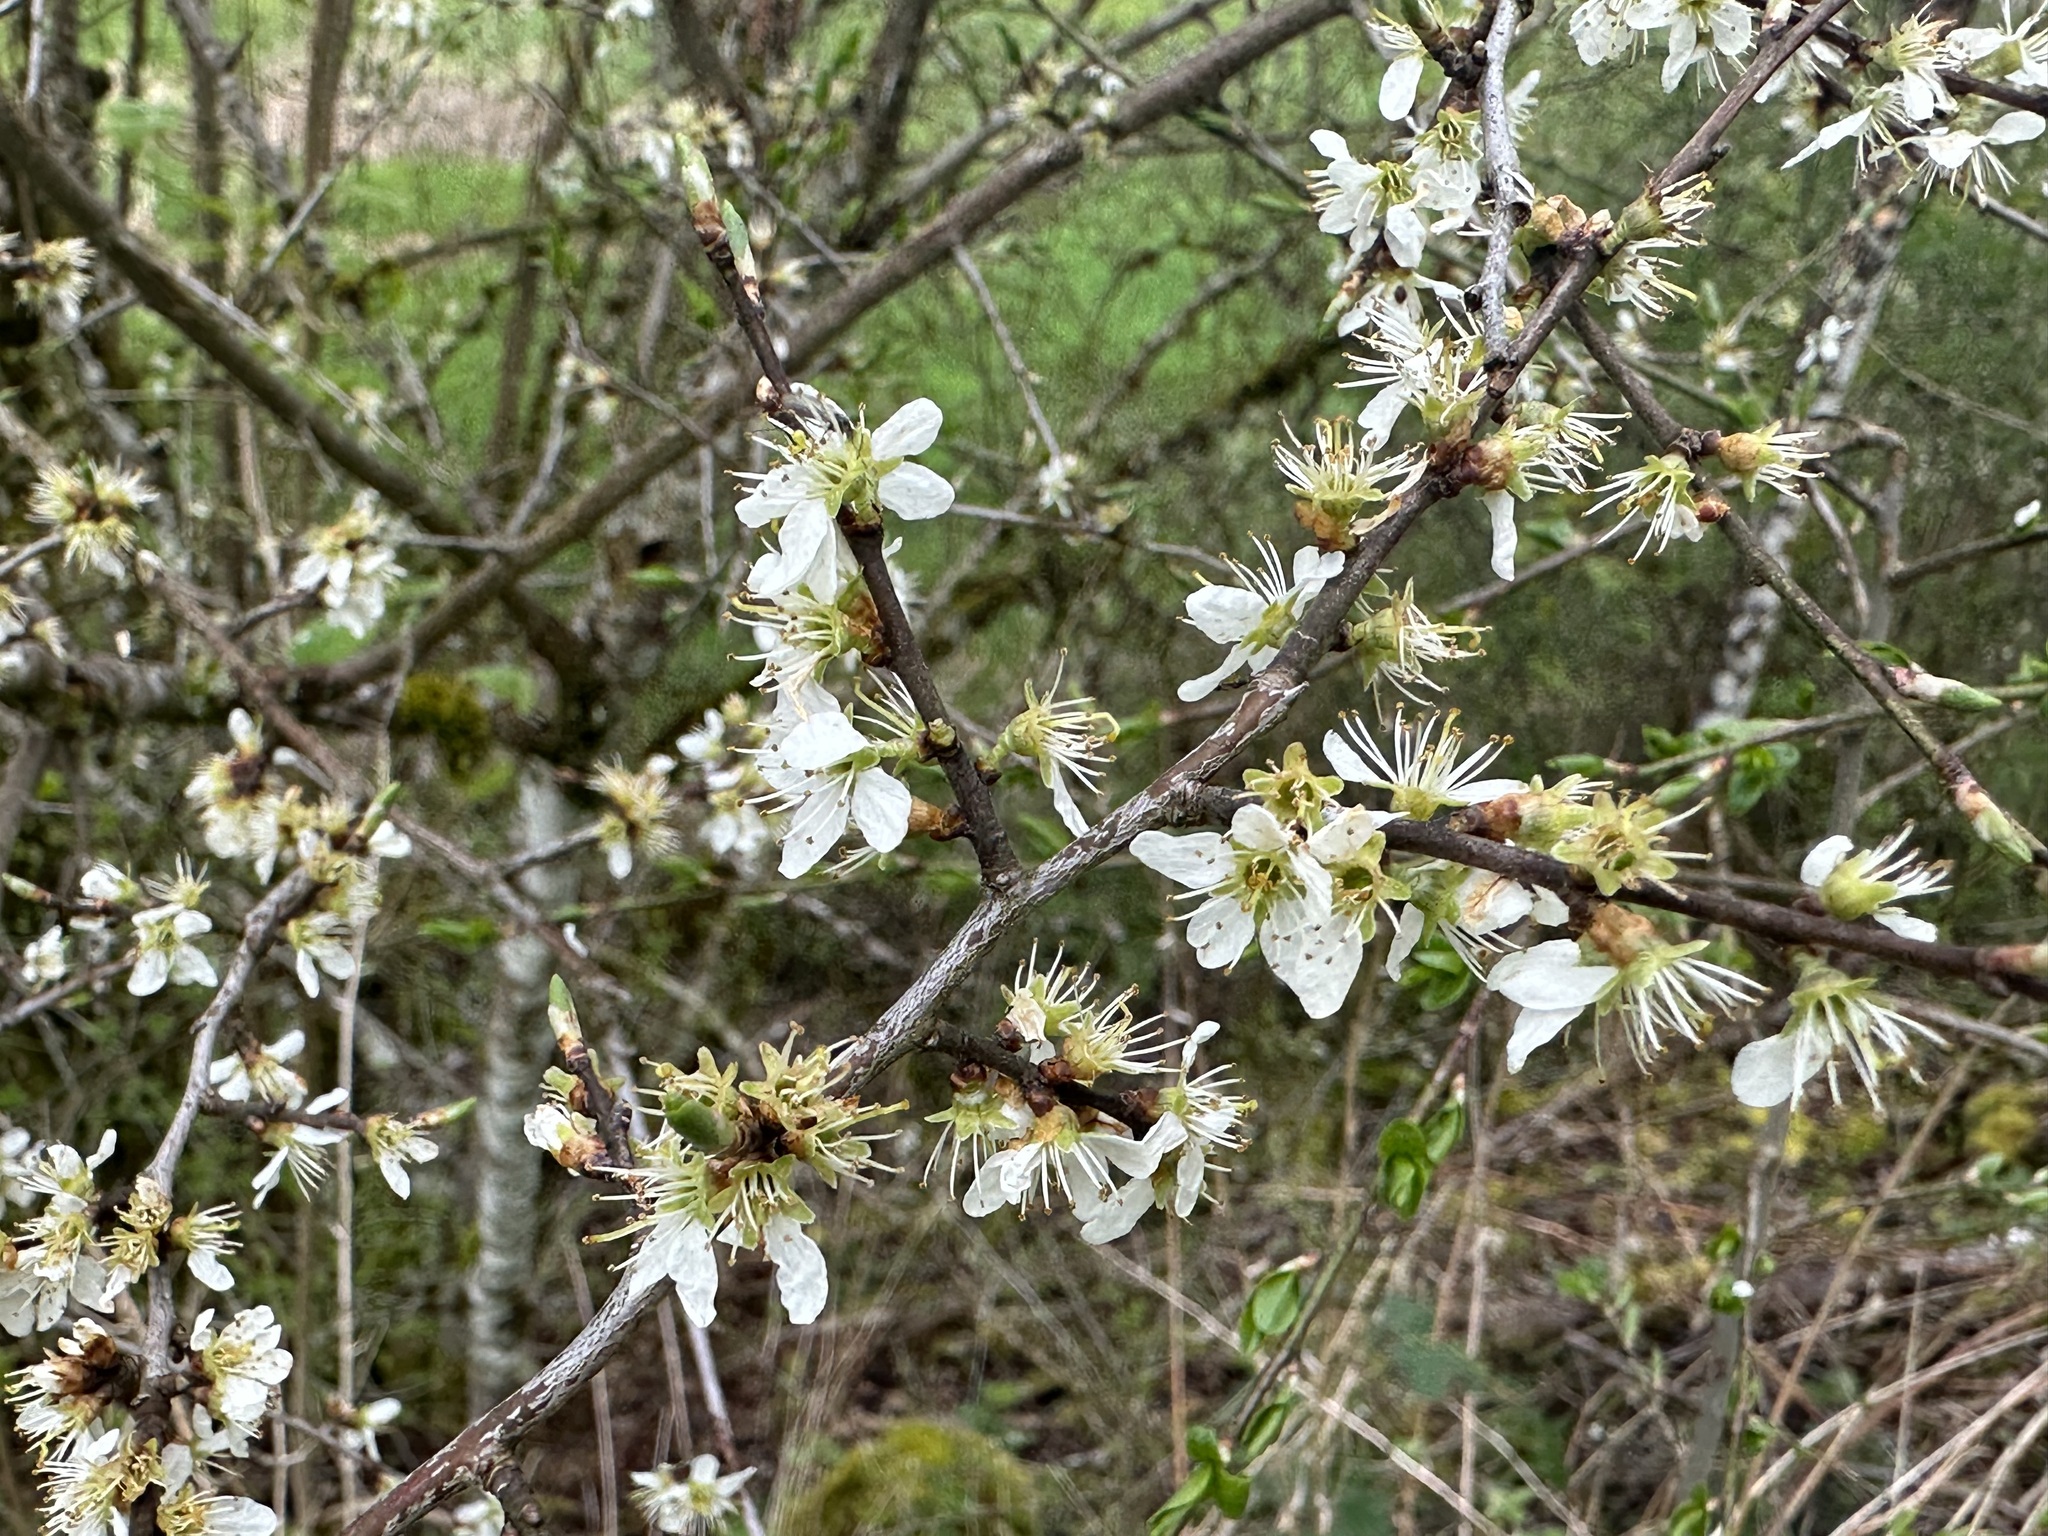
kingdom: Plantae
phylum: Tracheophyta
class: Magnoliopsida
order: Rosales
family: Rosaceae
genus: Prunus
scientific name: Prunus spinosa
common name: Blackthorn
